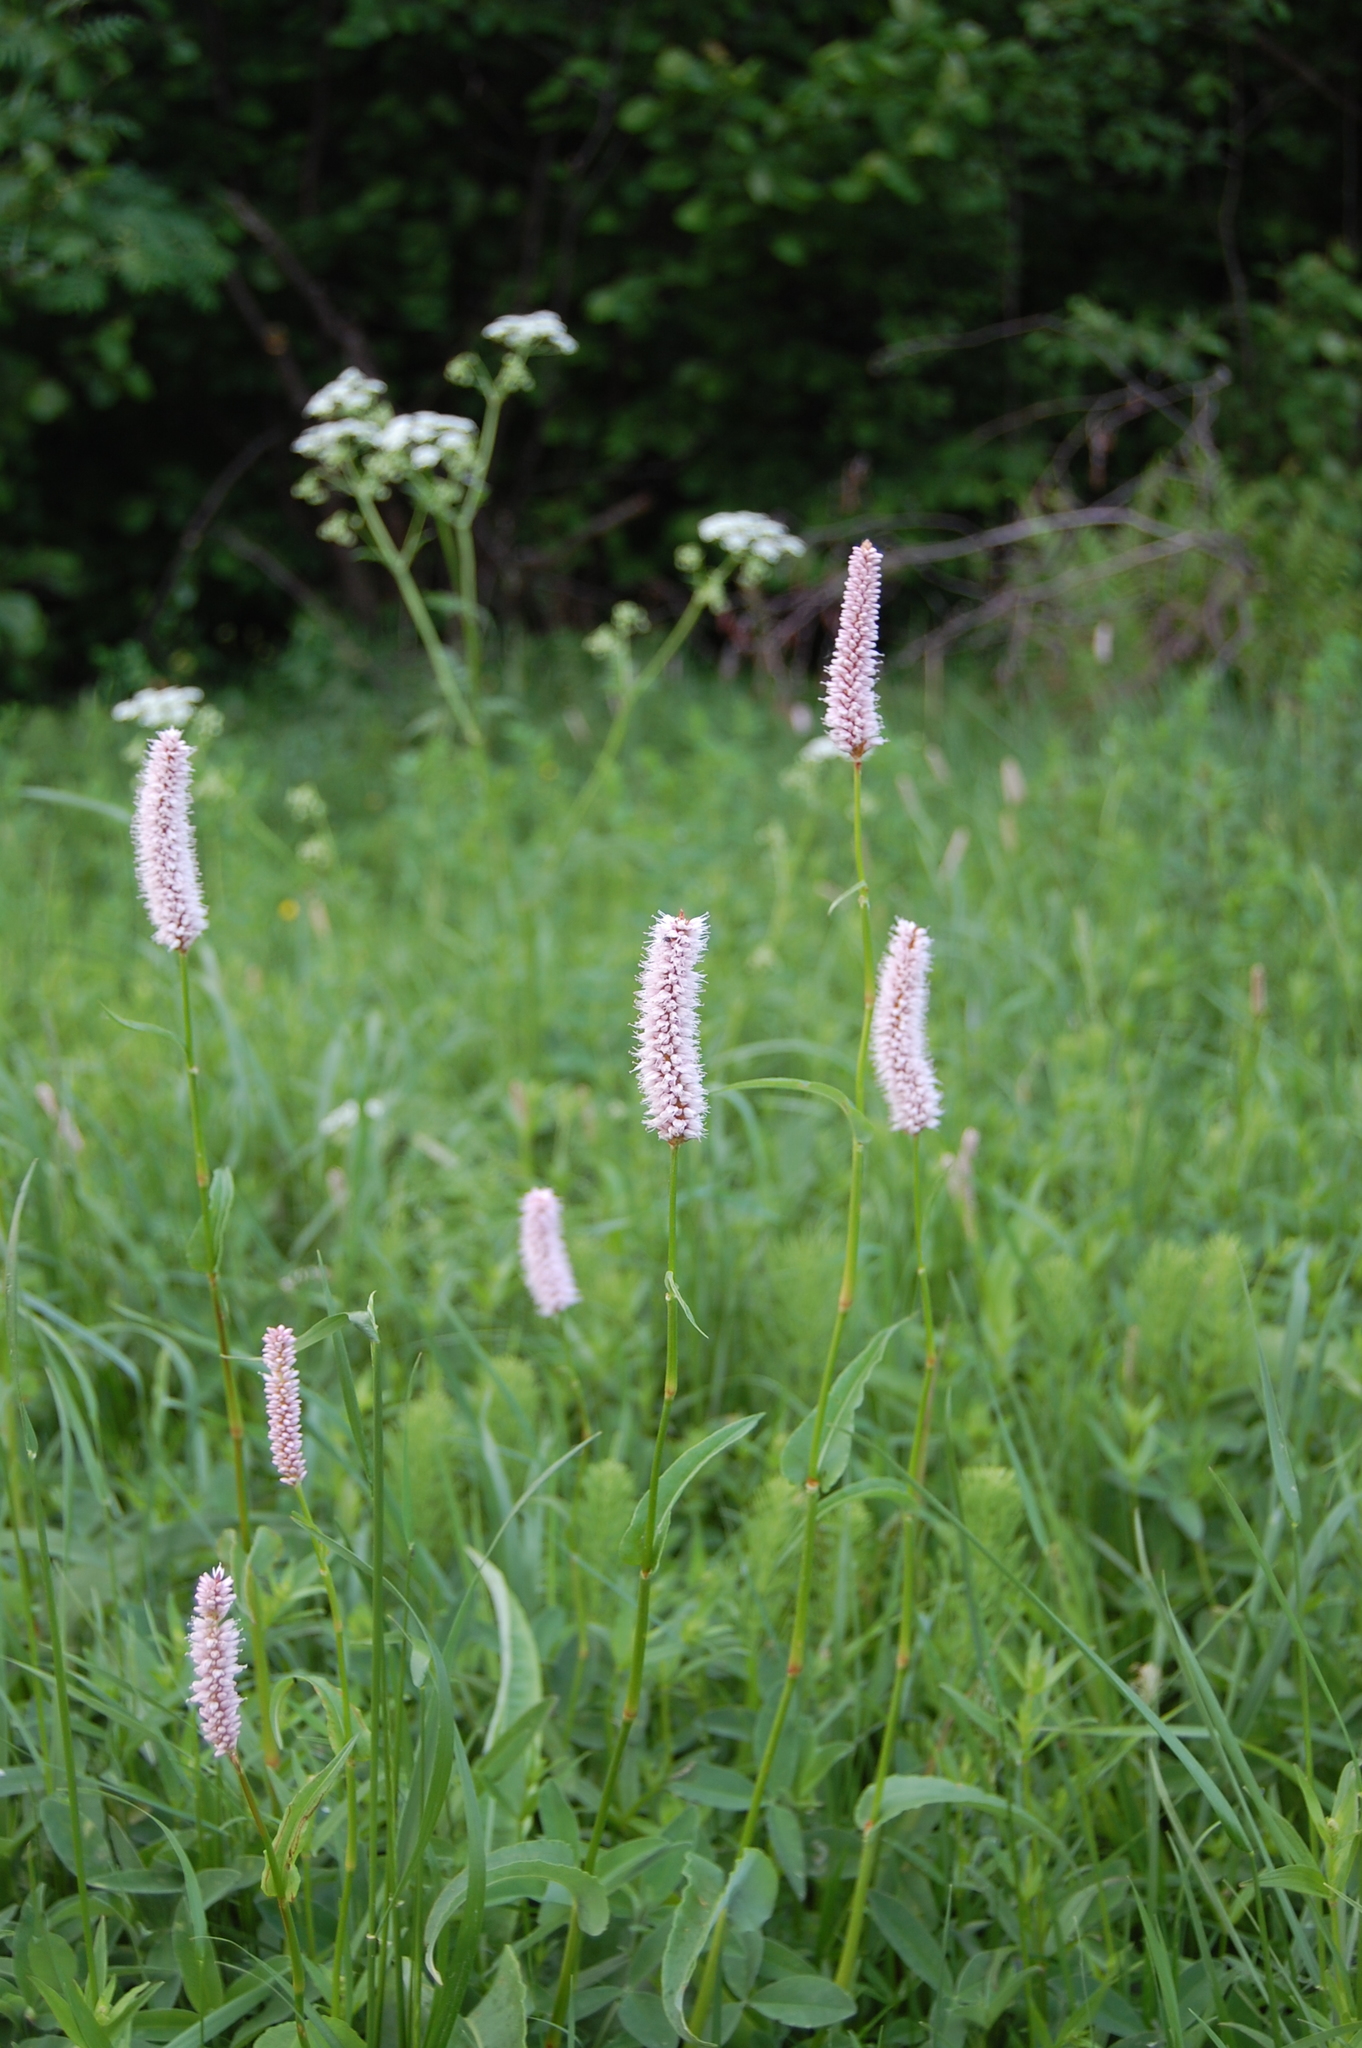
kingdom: Plantae
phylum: Tracheophyta
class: Magnoliopsida
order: Caryophyllales
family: Polygonaceae
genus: Bistorta
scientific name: Bistorta officinalis
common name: Common bistort
